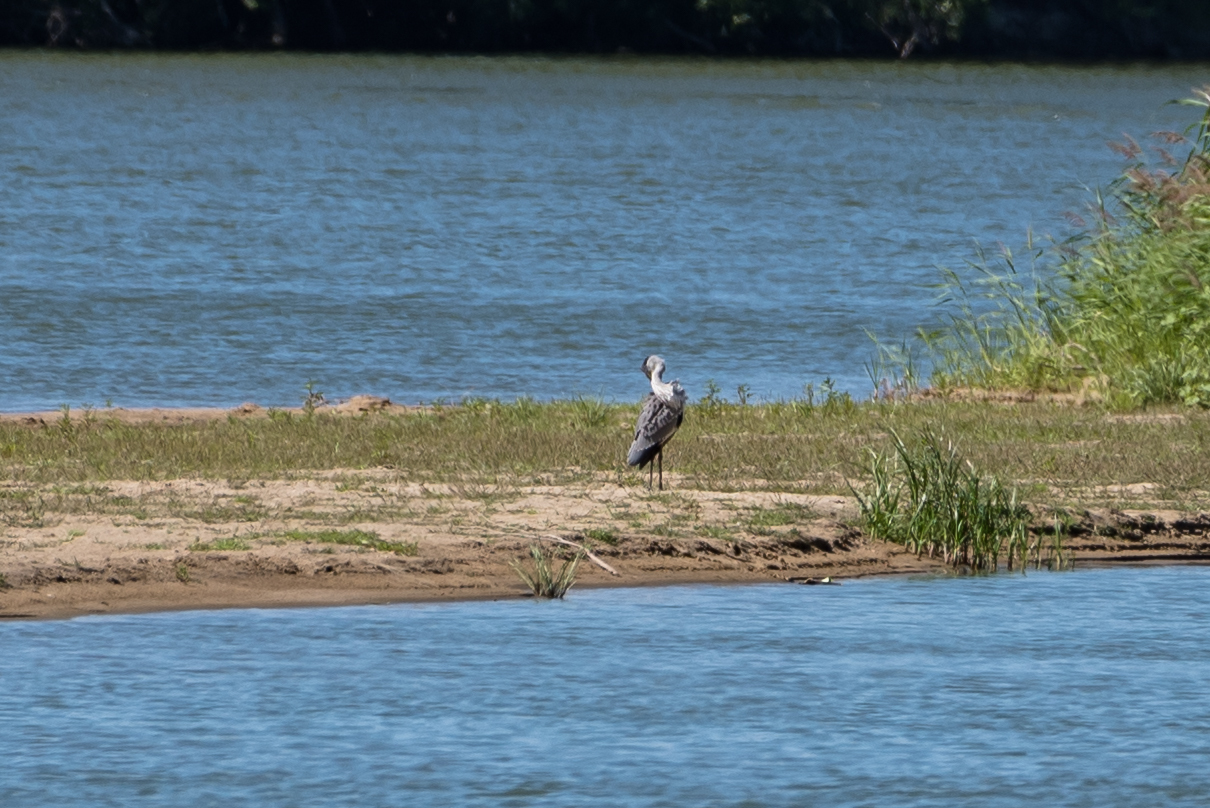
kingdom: Animalia
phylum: Chordata
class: Aves
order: Pelecaniformes
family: Ardeidae
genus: Ardea
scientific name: Ardea cinerea
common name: Grey heron
